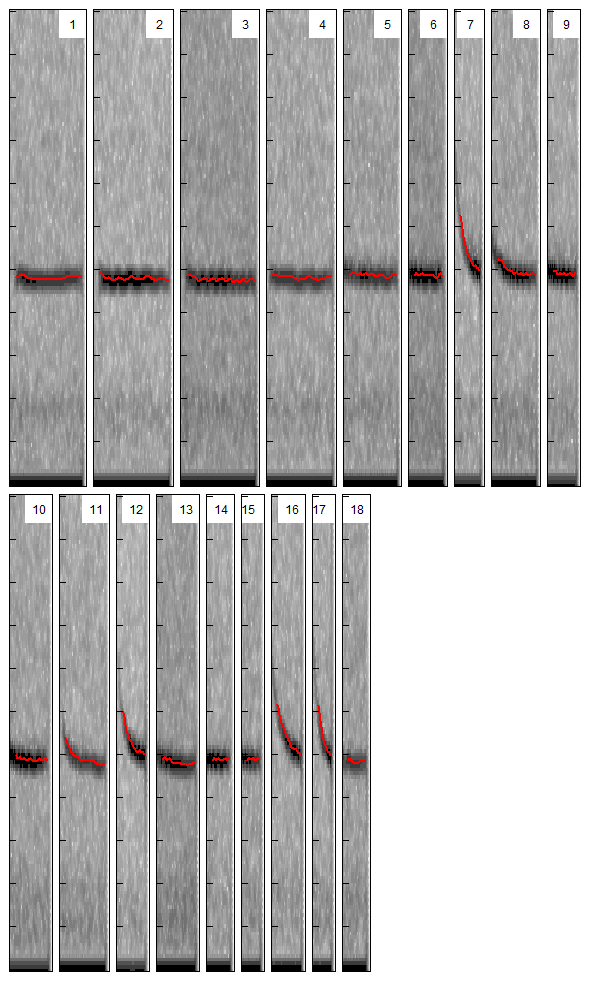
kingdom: Animalia
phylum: Chordata
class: Mammalia
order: Chiroptera
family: Vespertilionidae
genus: Pipistrellus
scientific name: Pipistrellus pygmaeus
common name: Soprano pipistrelle
